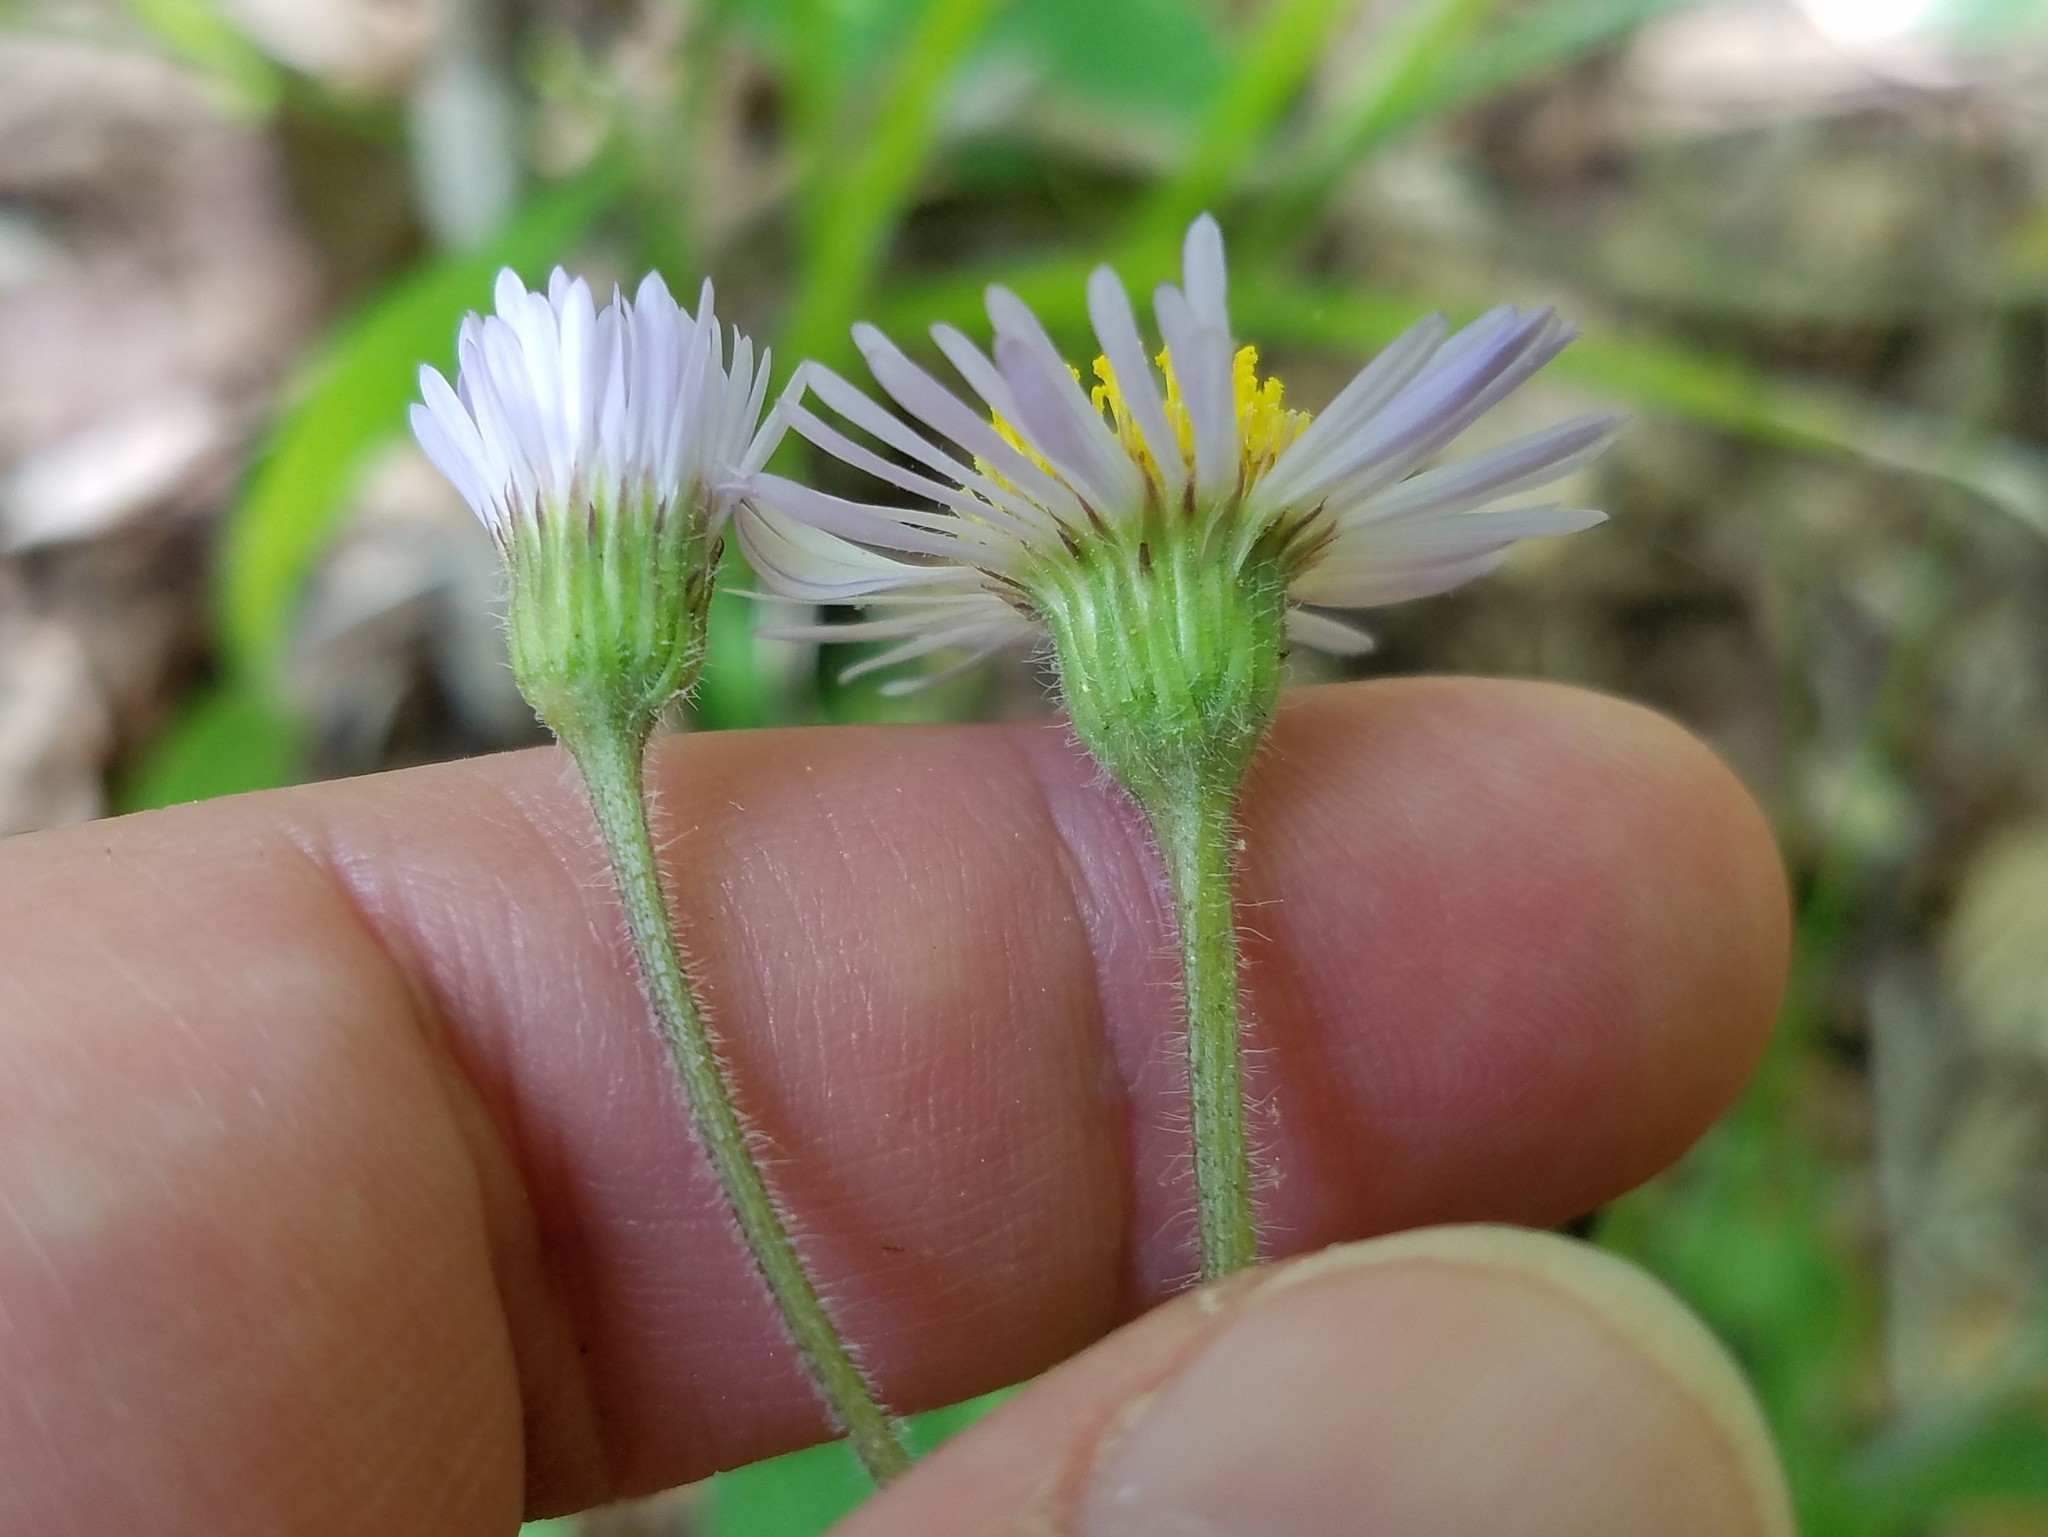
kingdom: Plantae
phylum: Tracheophyta
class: Magnoliopsida
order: Asterales
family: Asteraceae
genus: Erigeron
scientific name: Erigeron pulchellus
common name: Hairy fleabane
